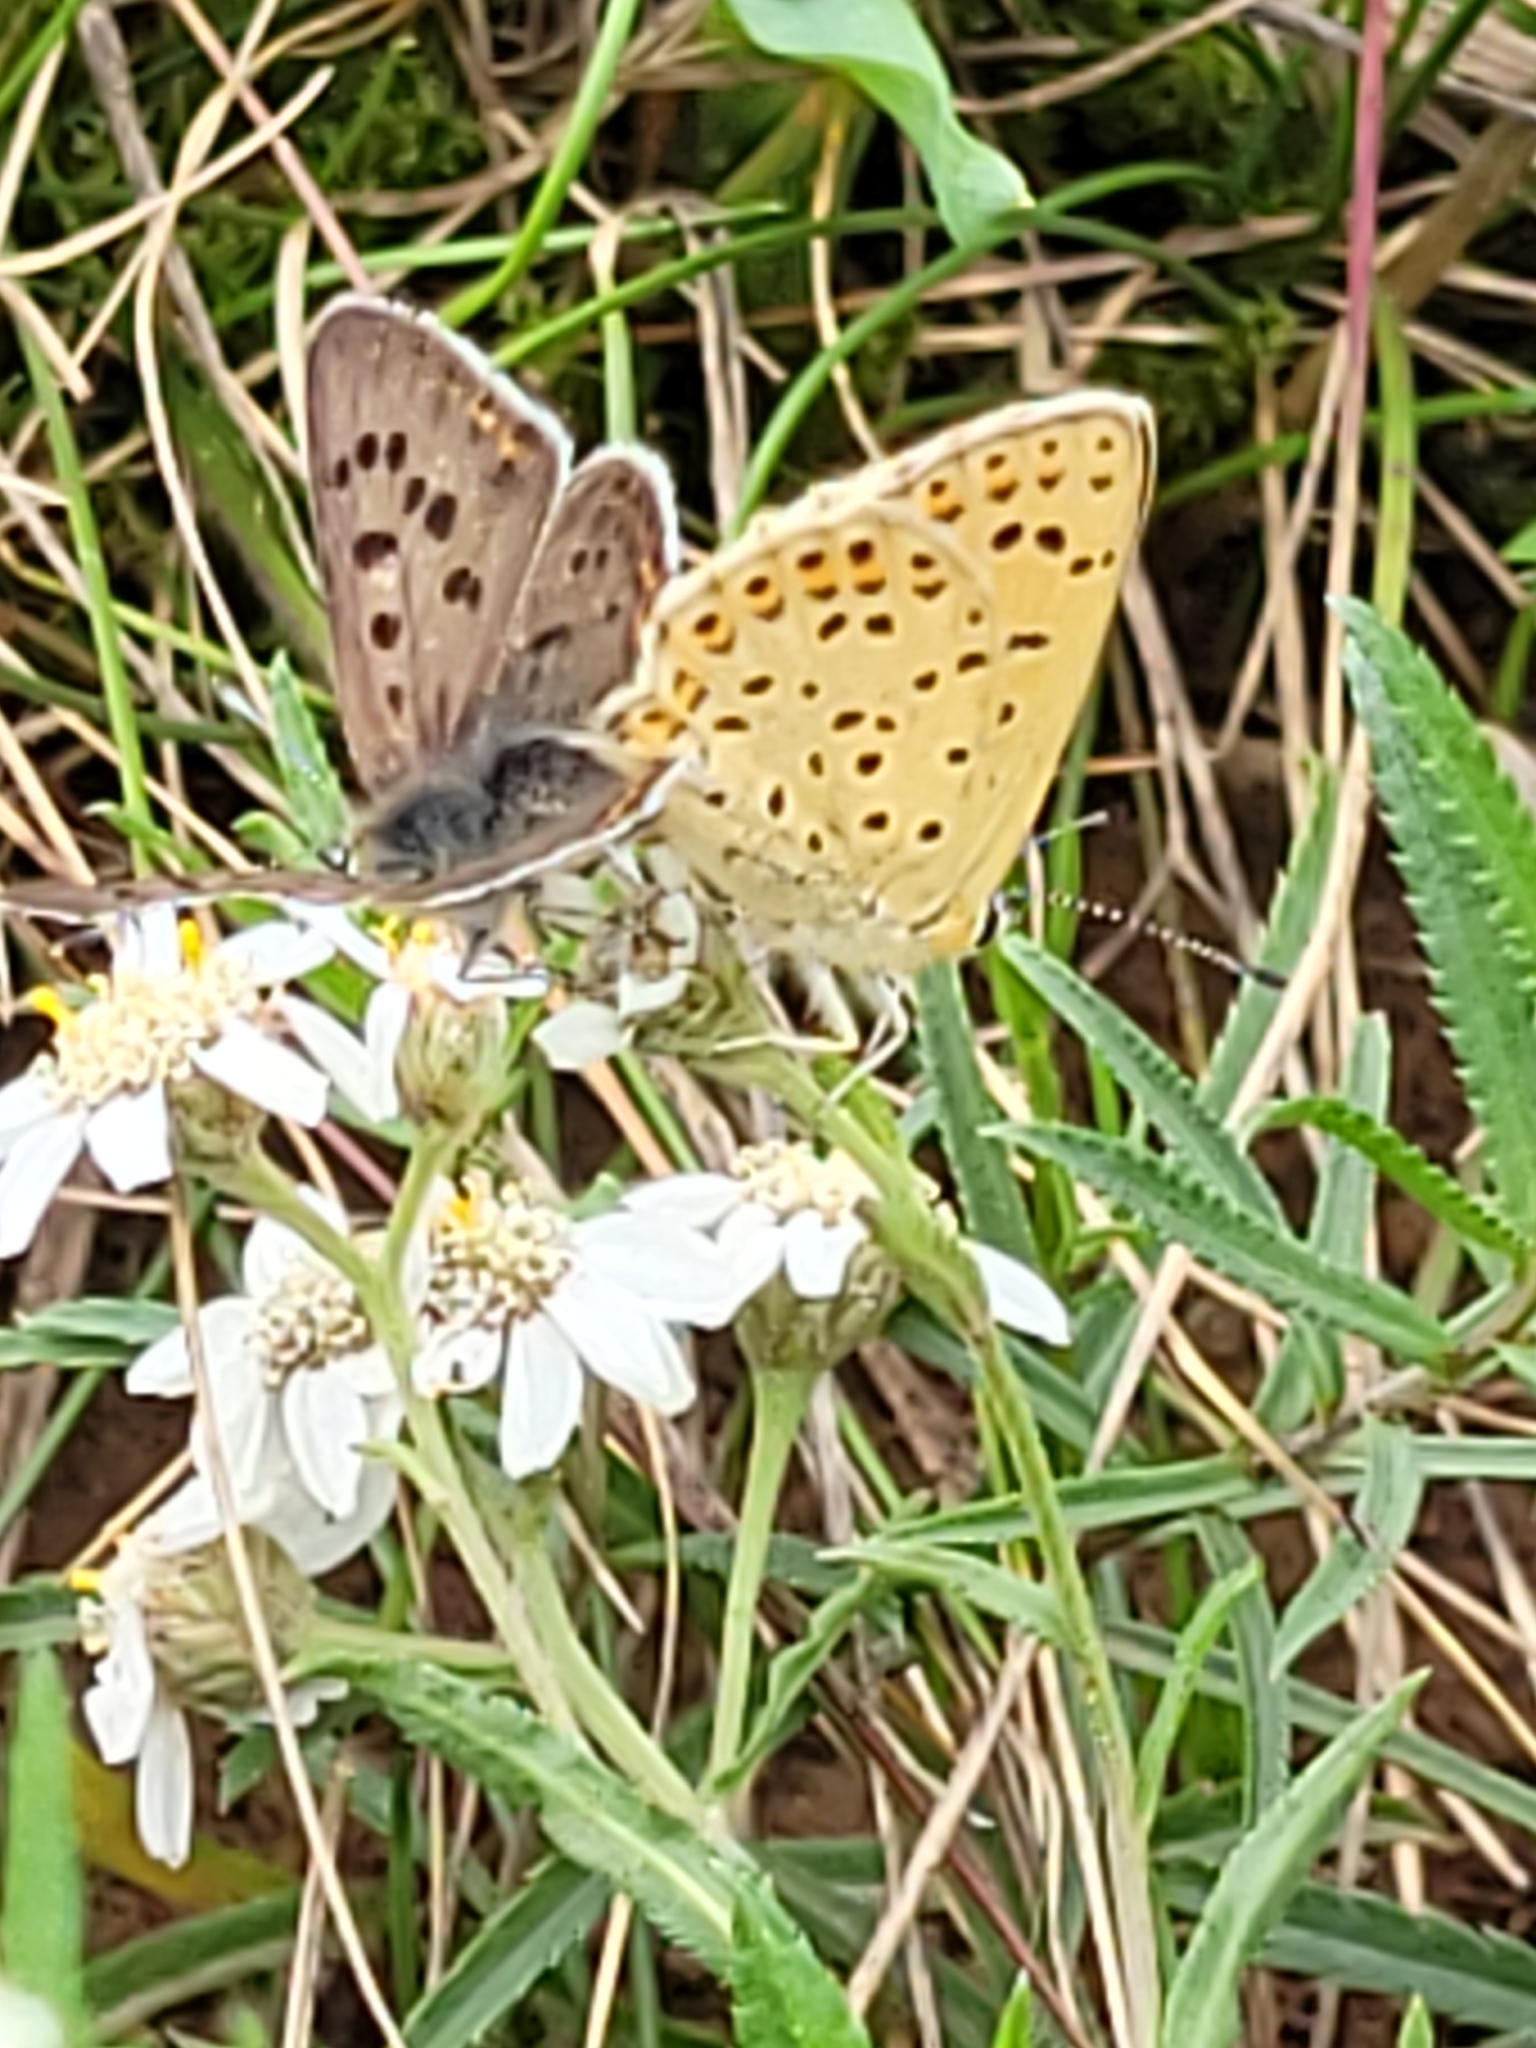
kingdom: Animalia
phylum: Arthropoda
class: Insecta
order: Lepidoptera
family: Lycaenidae
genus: Loweia
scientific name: Loweia tityrus
